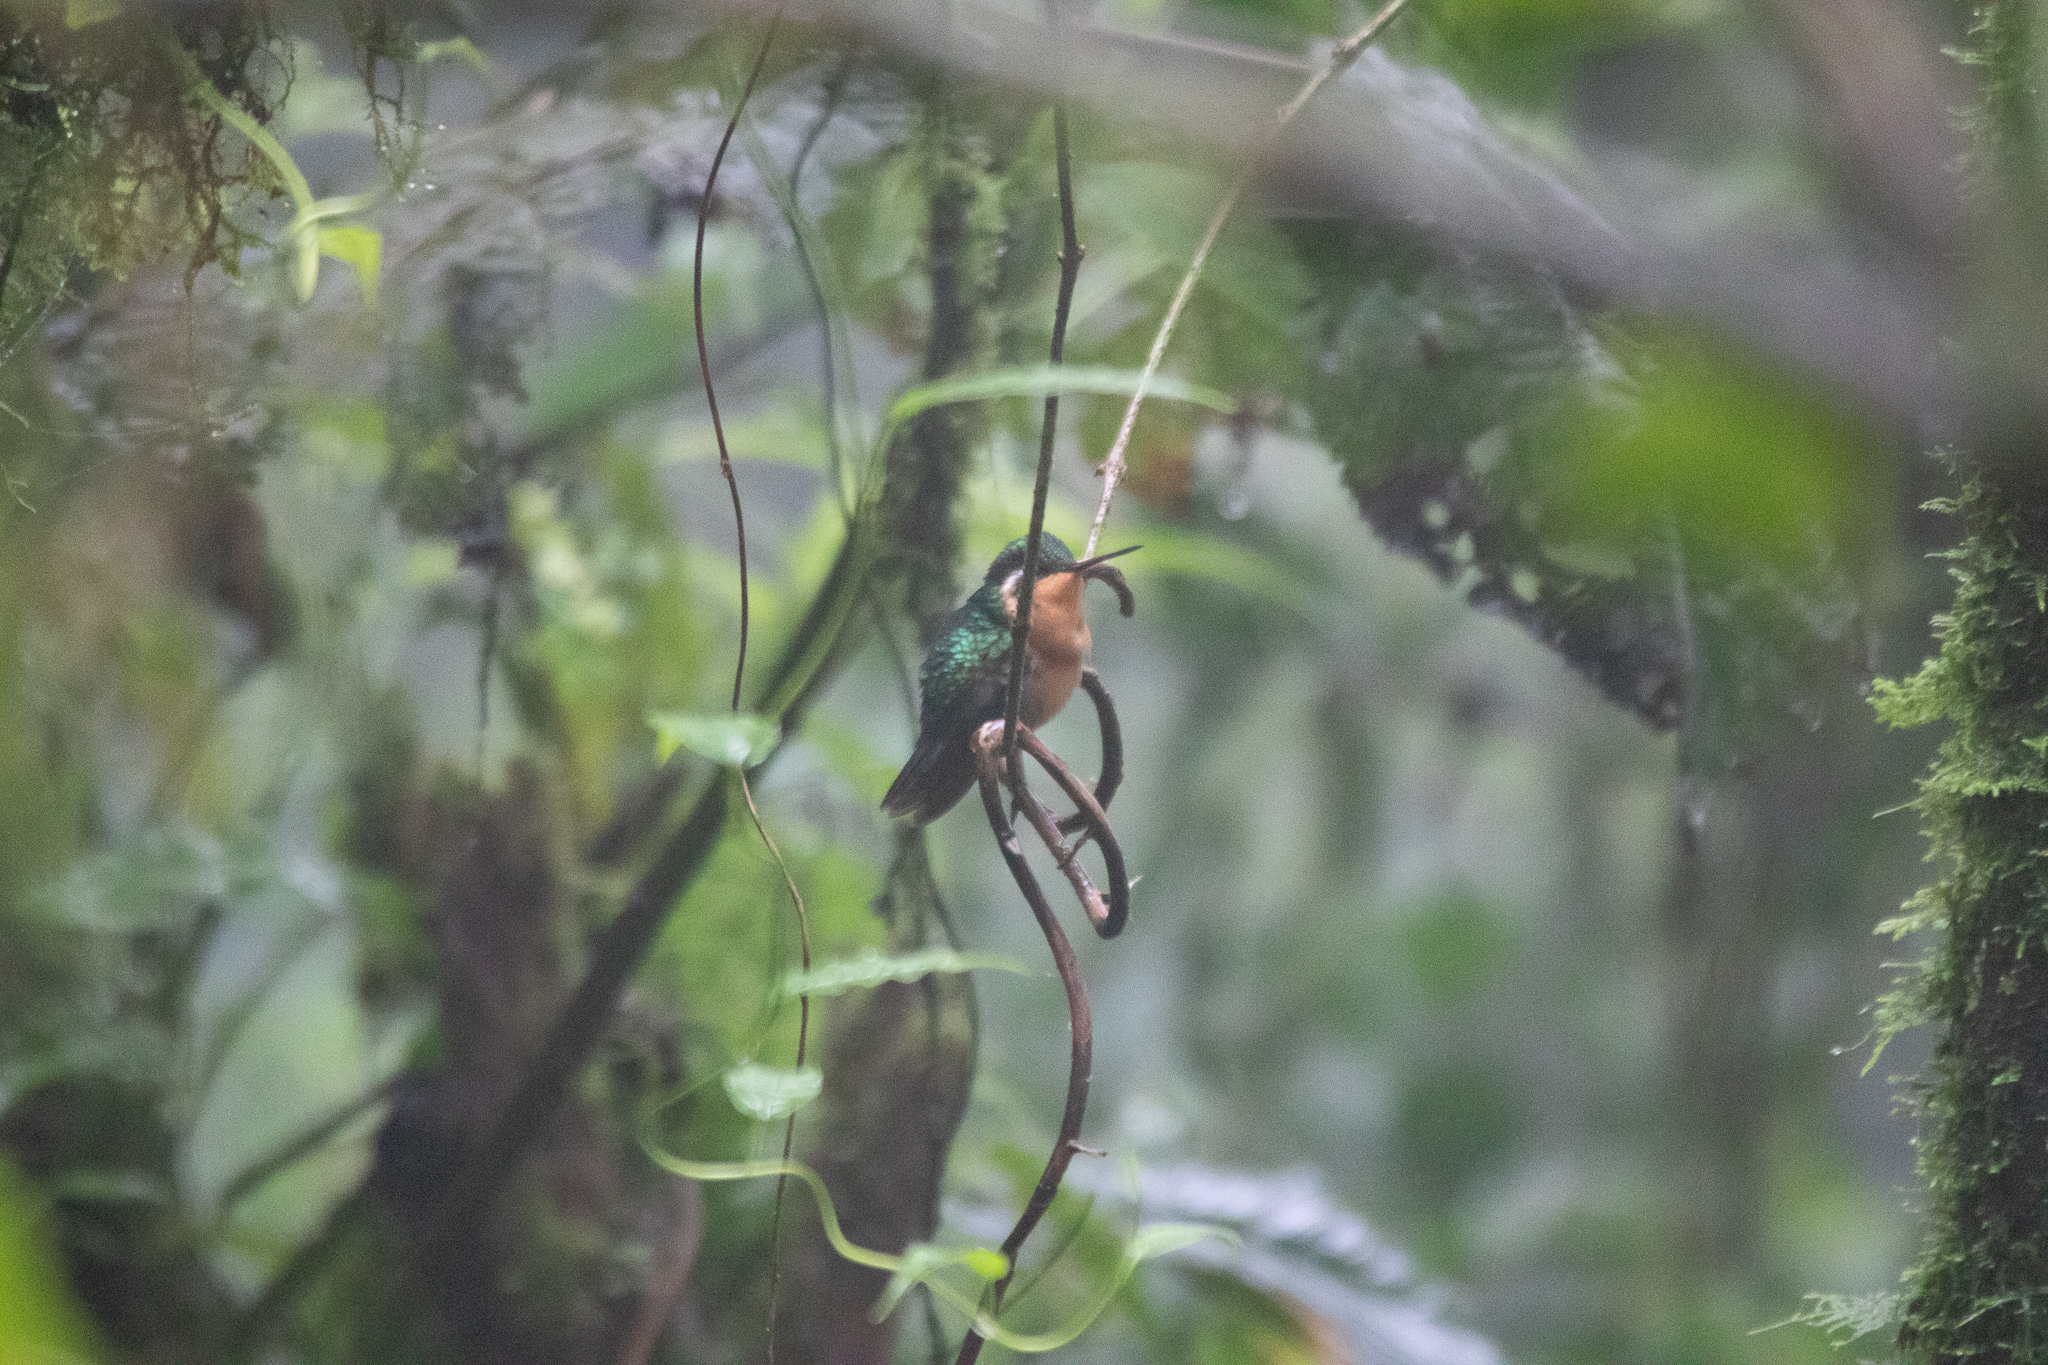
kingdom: Animalia
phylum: Chordata
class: Aves
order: Apodiformes
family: Trochilidae
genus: Lampornis
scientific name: Lampornis calolaemus
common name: Purple-throated mountain-gem
